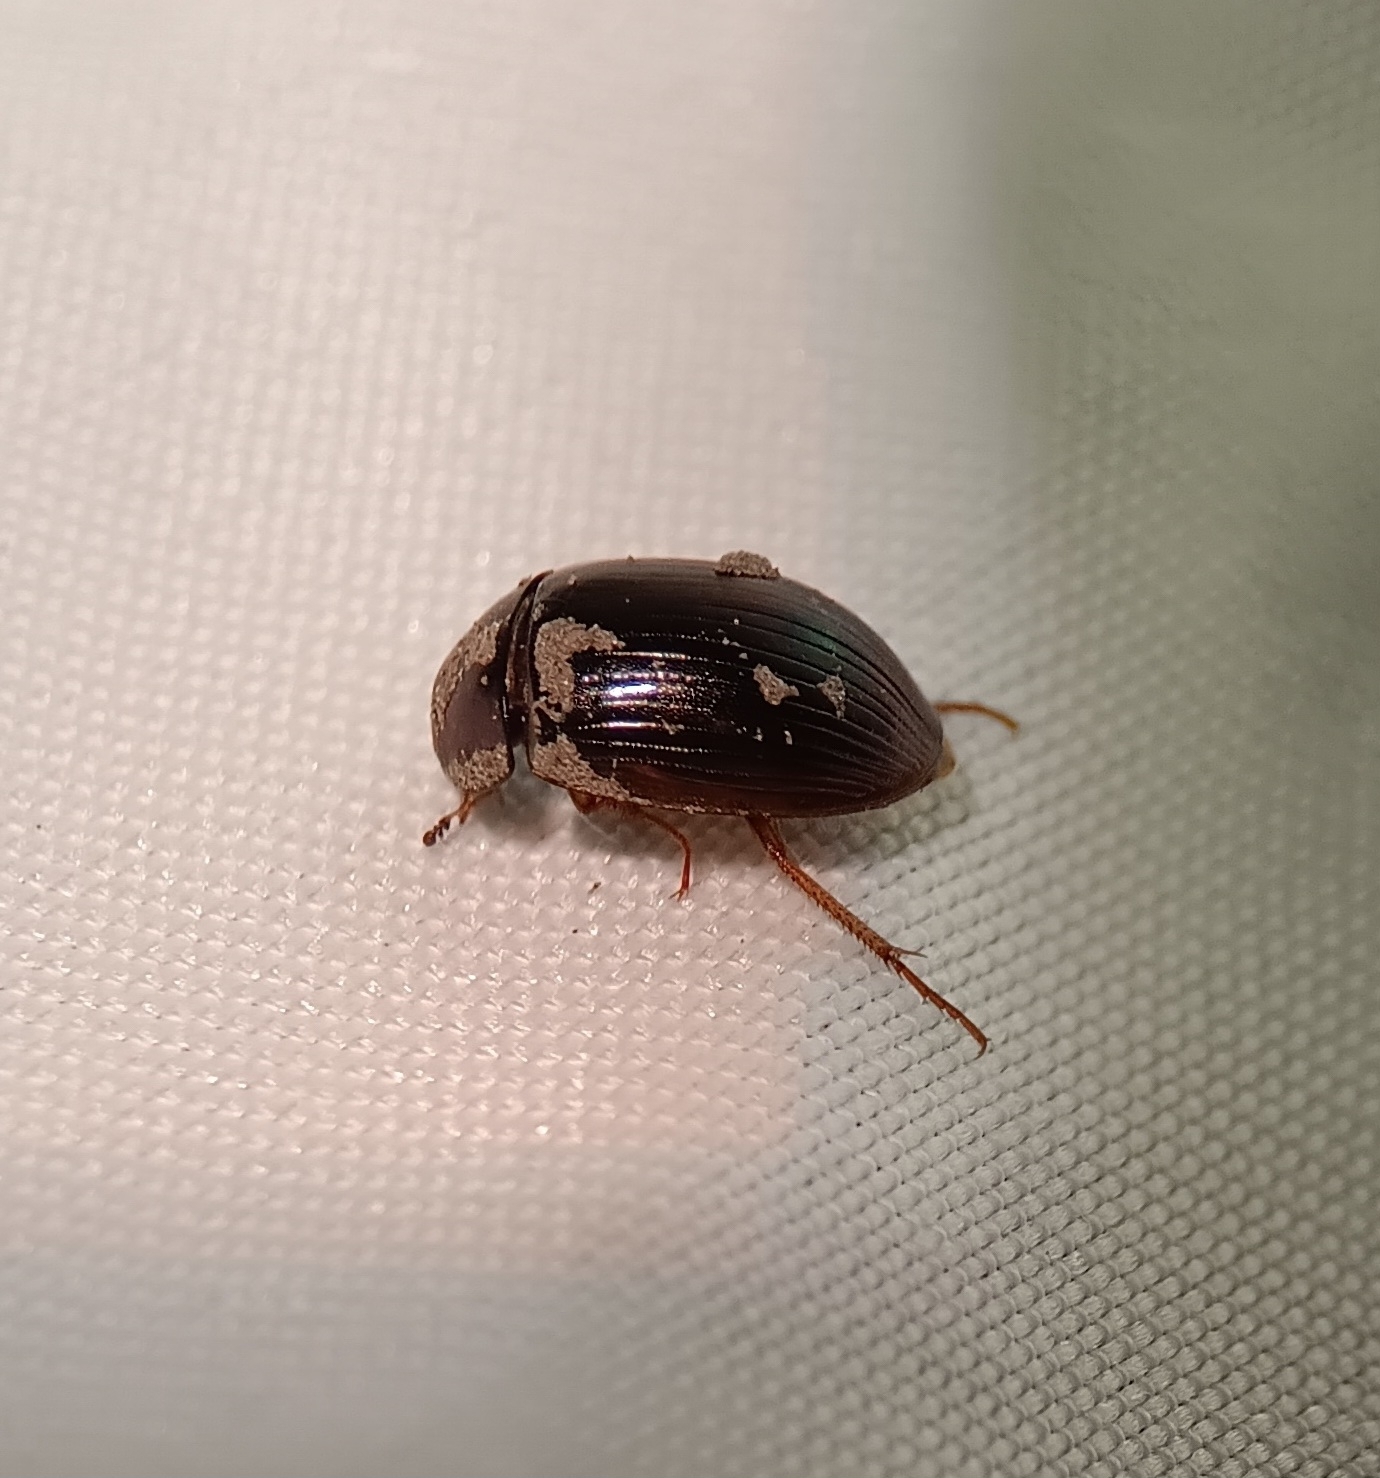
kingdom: Animalia
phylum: Arthropoda
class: Insecta
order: Coleoptera
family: Hydrophilidae
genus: Hydrobius
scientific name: Hydrobius fuscipes
